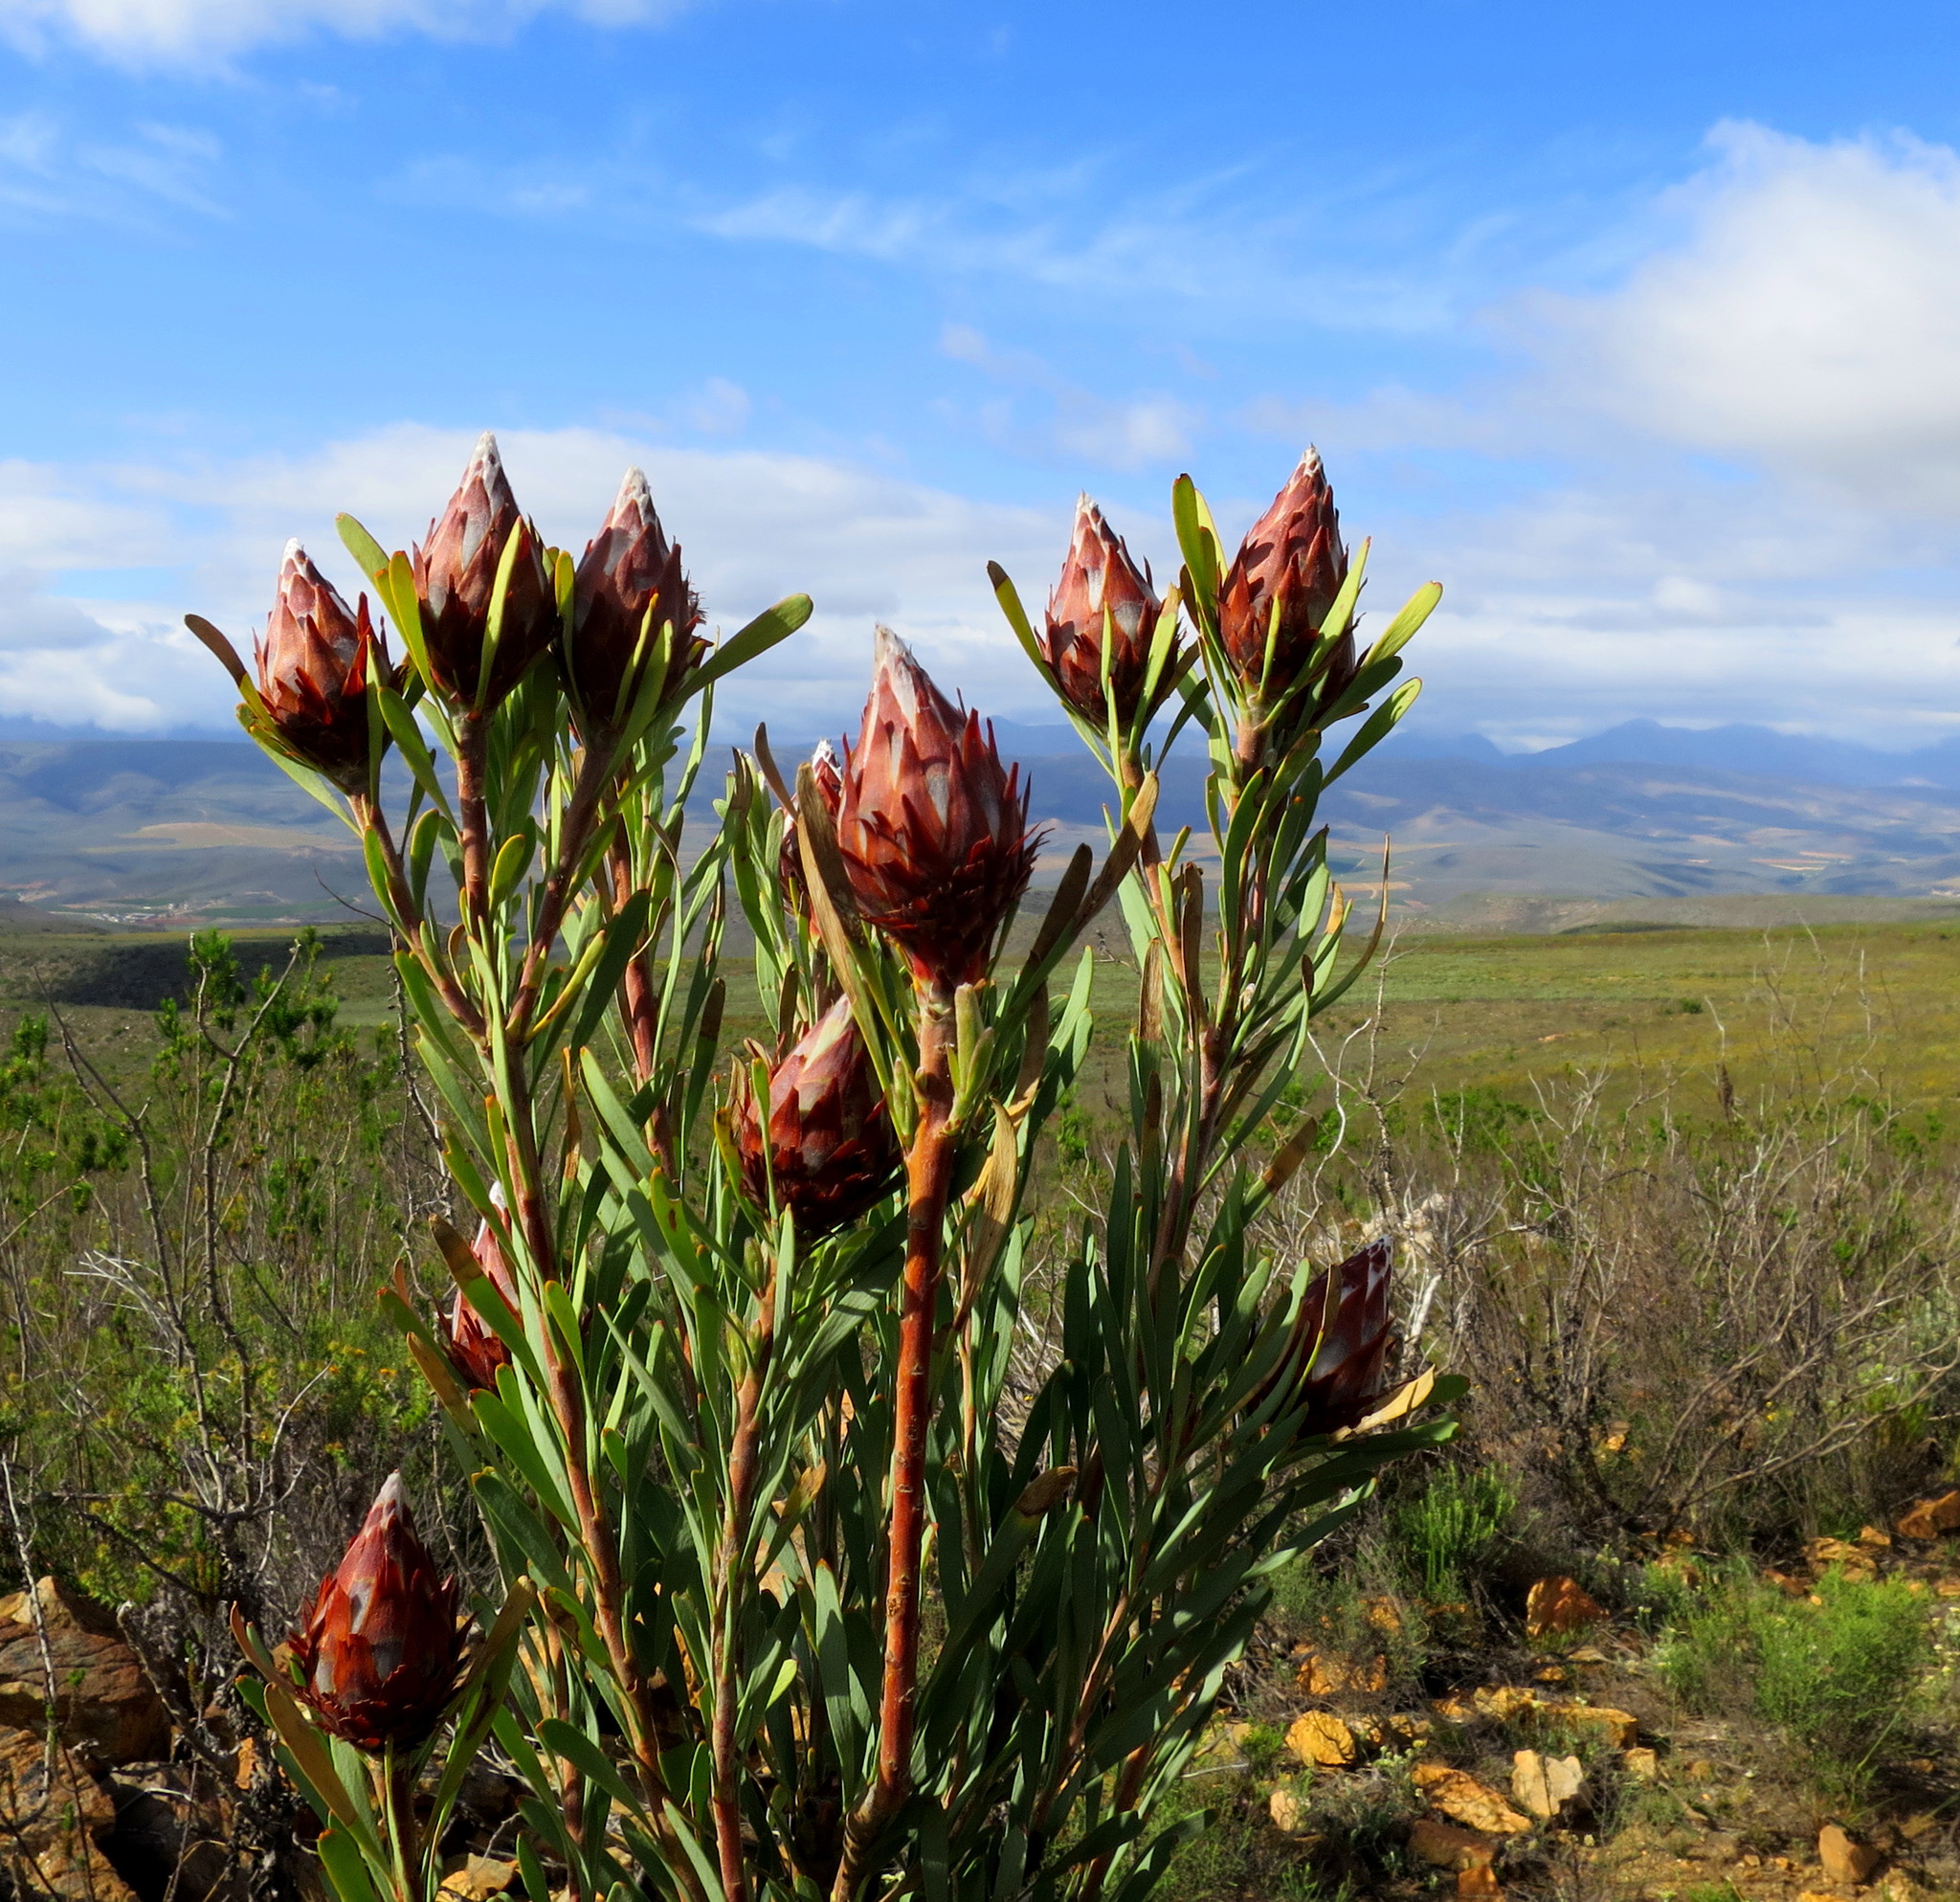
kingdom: Plantae
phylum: Tracheophyta
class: Magnoliopsida
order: Proteales
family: Proteaceae
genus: Leucadendron
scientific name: Leucadendron rubrum
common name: Spinning top
